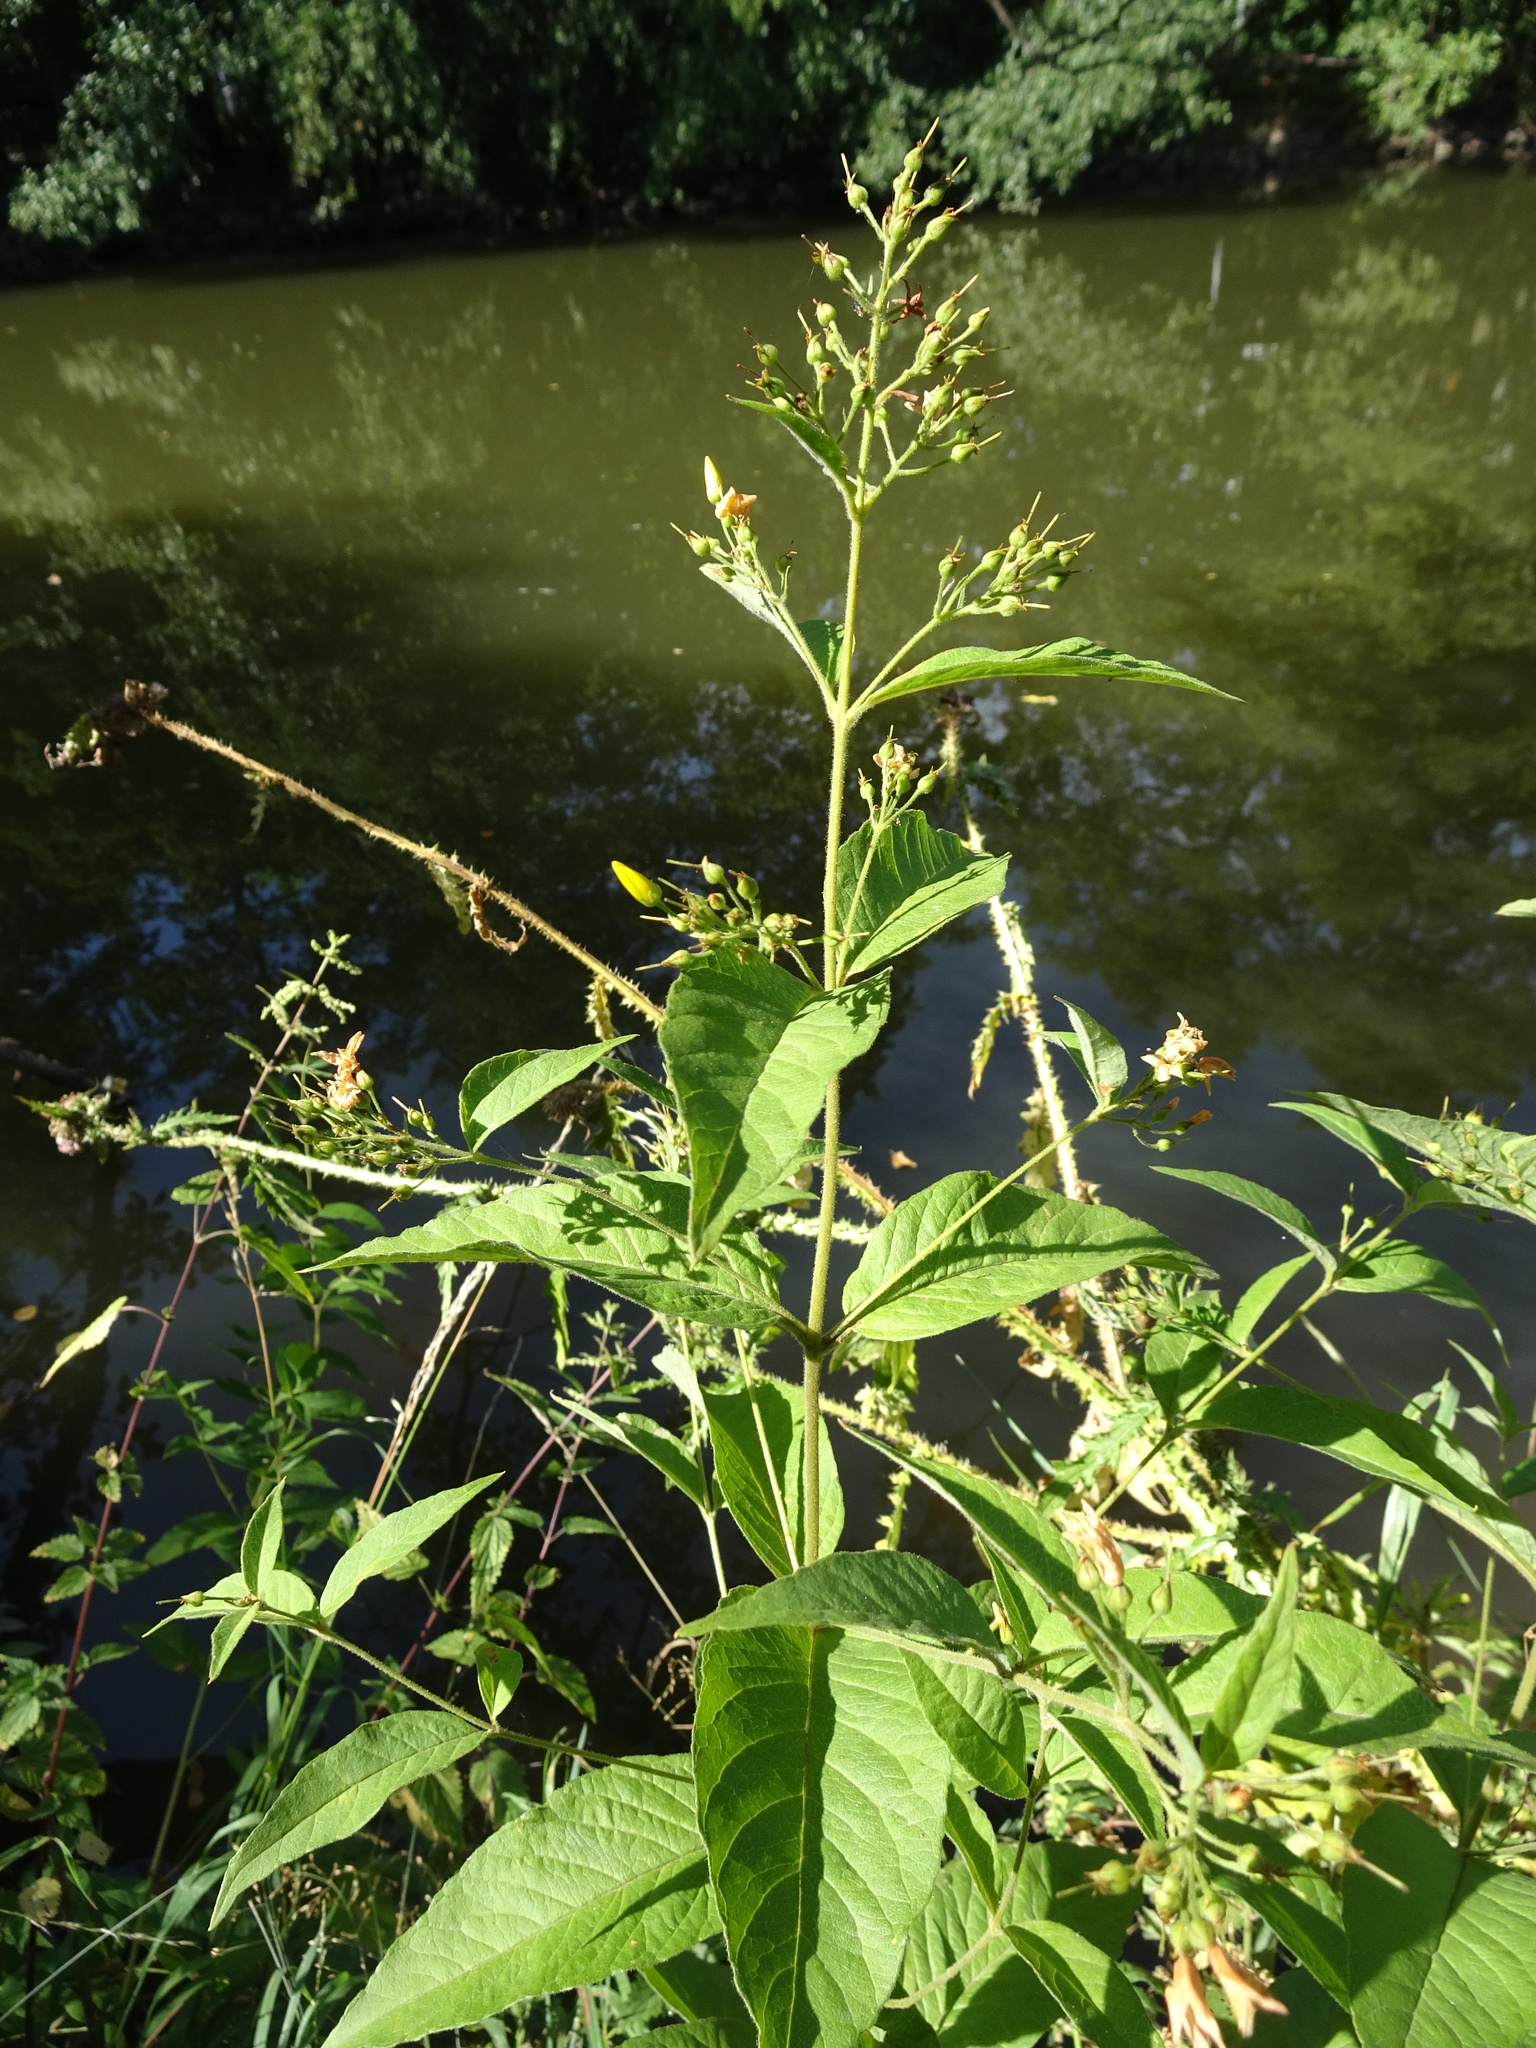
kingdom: Plantae
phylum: Tracheophyta
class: Magnoliopsida
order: Ericales
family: Primulaceae
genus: Lysimachia
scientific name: Lysimachia vulgaris
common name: Yellow loosestrife
